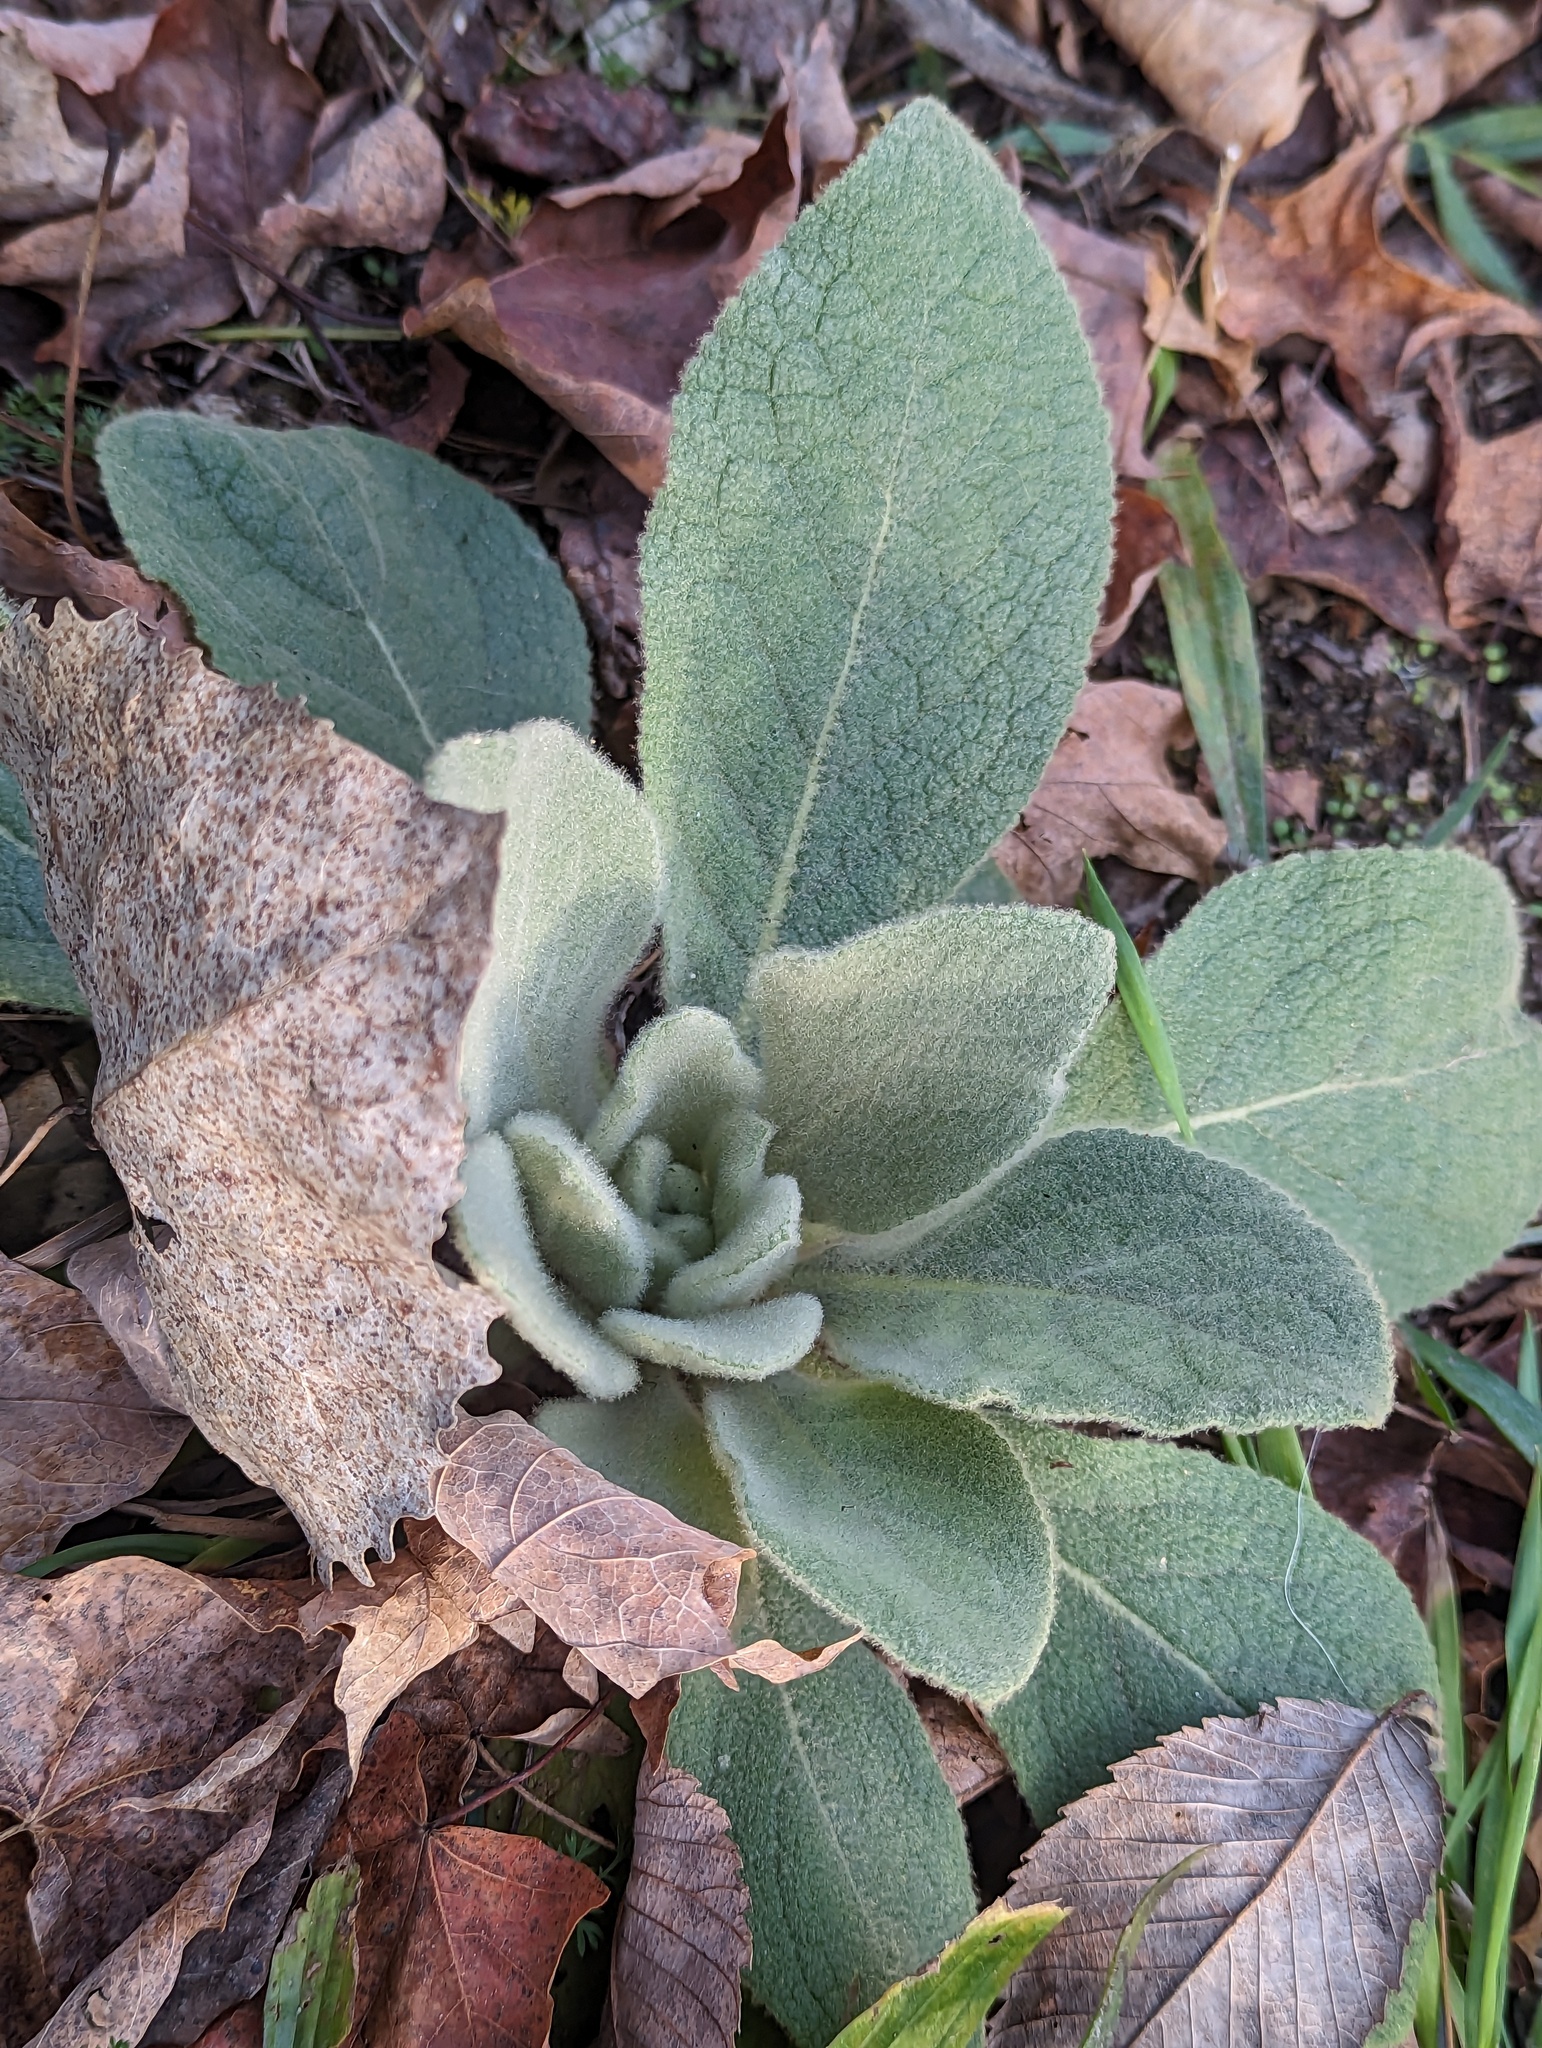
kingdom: Plantae
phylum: Tracheophyta
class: Magnoliopsida
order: Lamiales
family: Scrophulariaceae
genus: Verbascum
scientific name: Verbascum thapsus
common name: Common mullein
